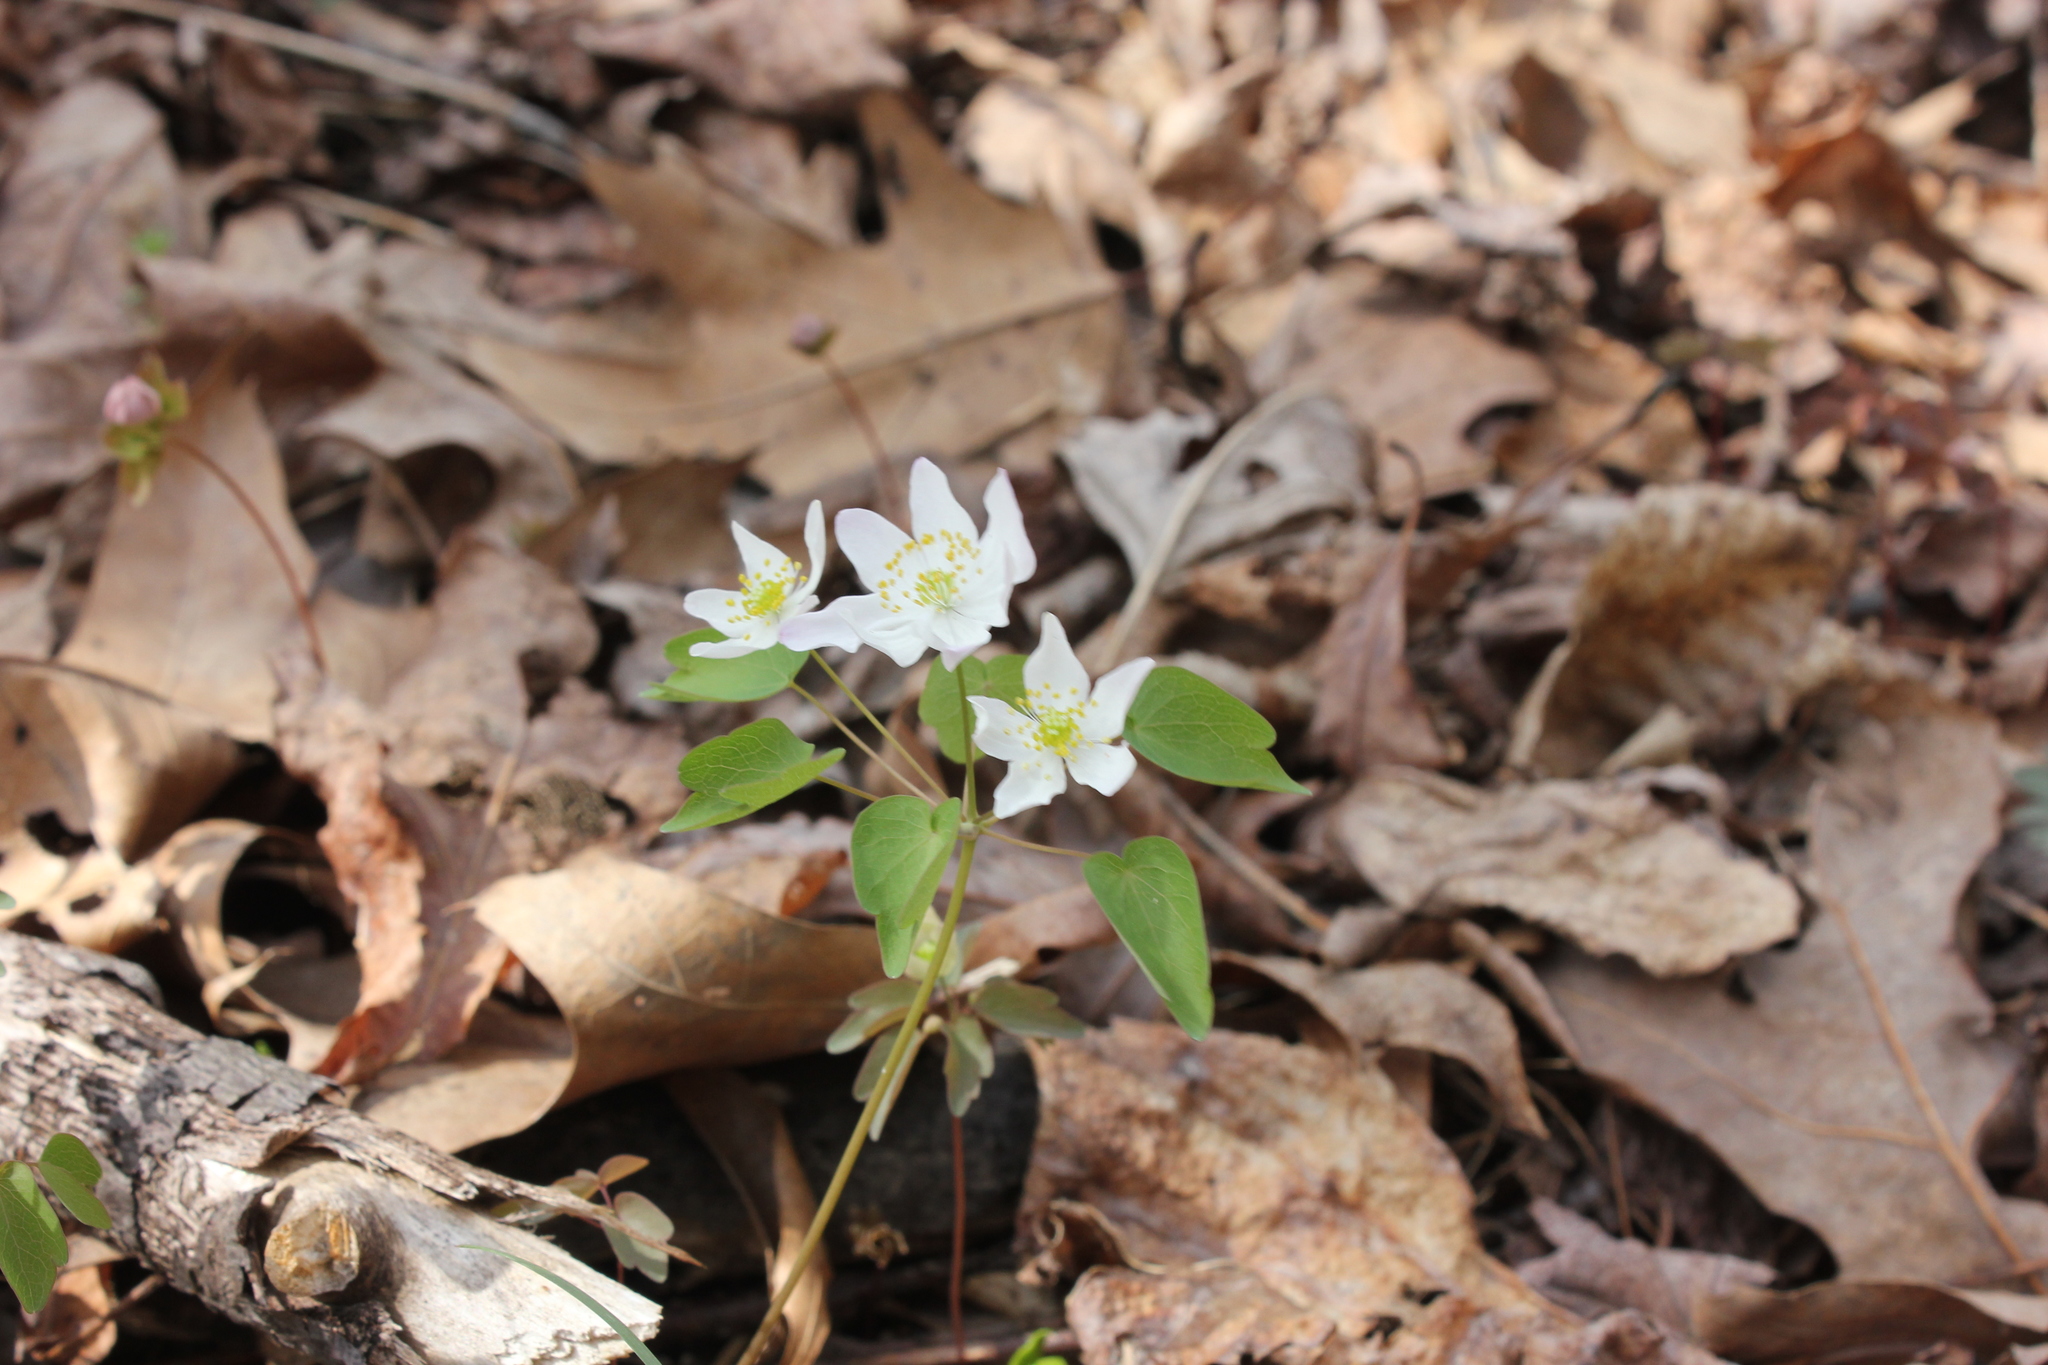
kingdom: Plantae
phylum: Tracheophyta
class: Magnoliopsida
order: Ranunculales
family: Ranunculaceae
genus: Thalictrum
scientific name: Thalictrum thalictroides
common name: Rue-anemone
